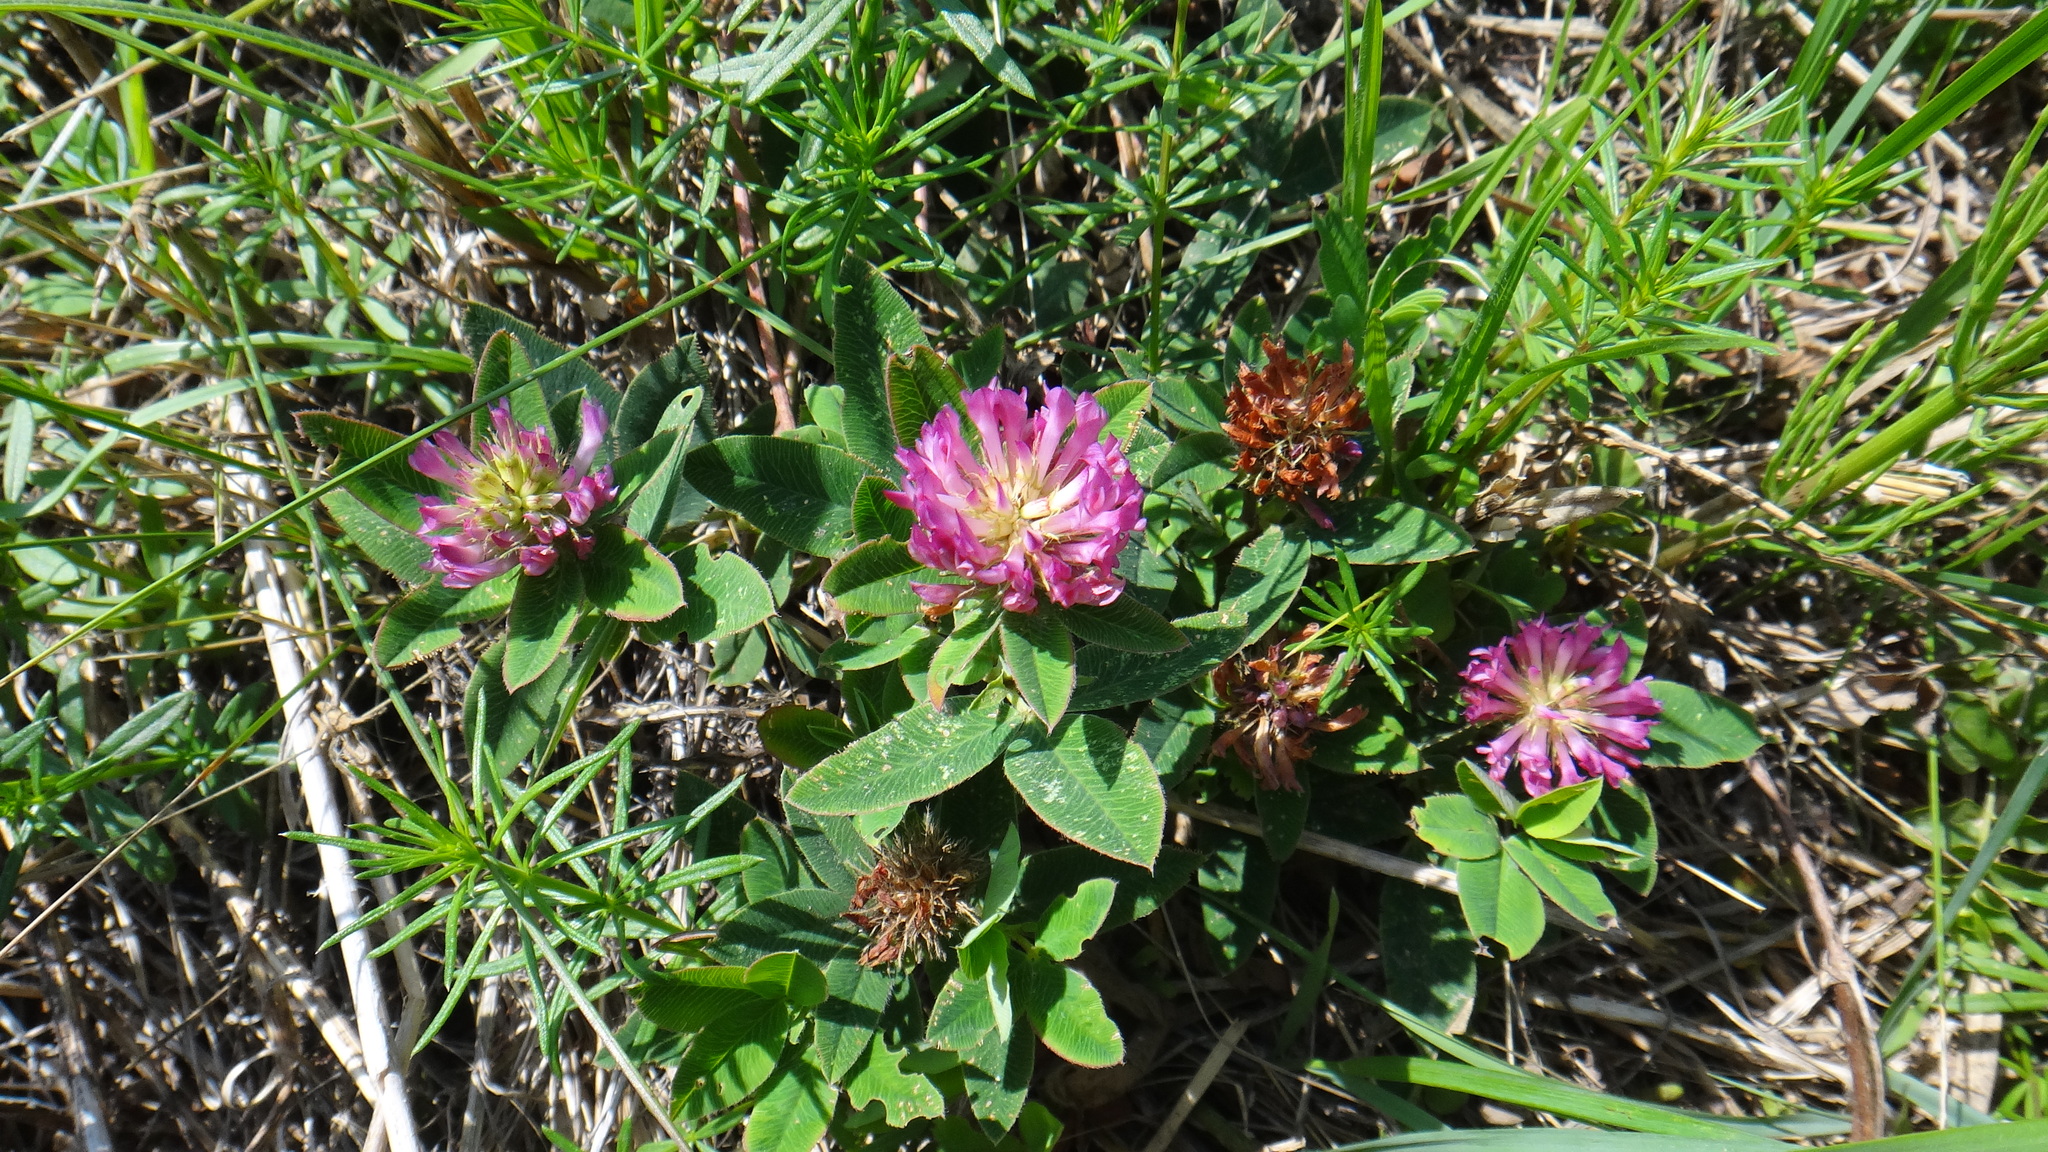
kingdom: Plantae
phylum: Tracheophyta
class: Magnoliopsida
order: Fabales
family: Fabaceae
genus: Trifolium
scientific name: Trifolium medium
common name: Zigzag clover
